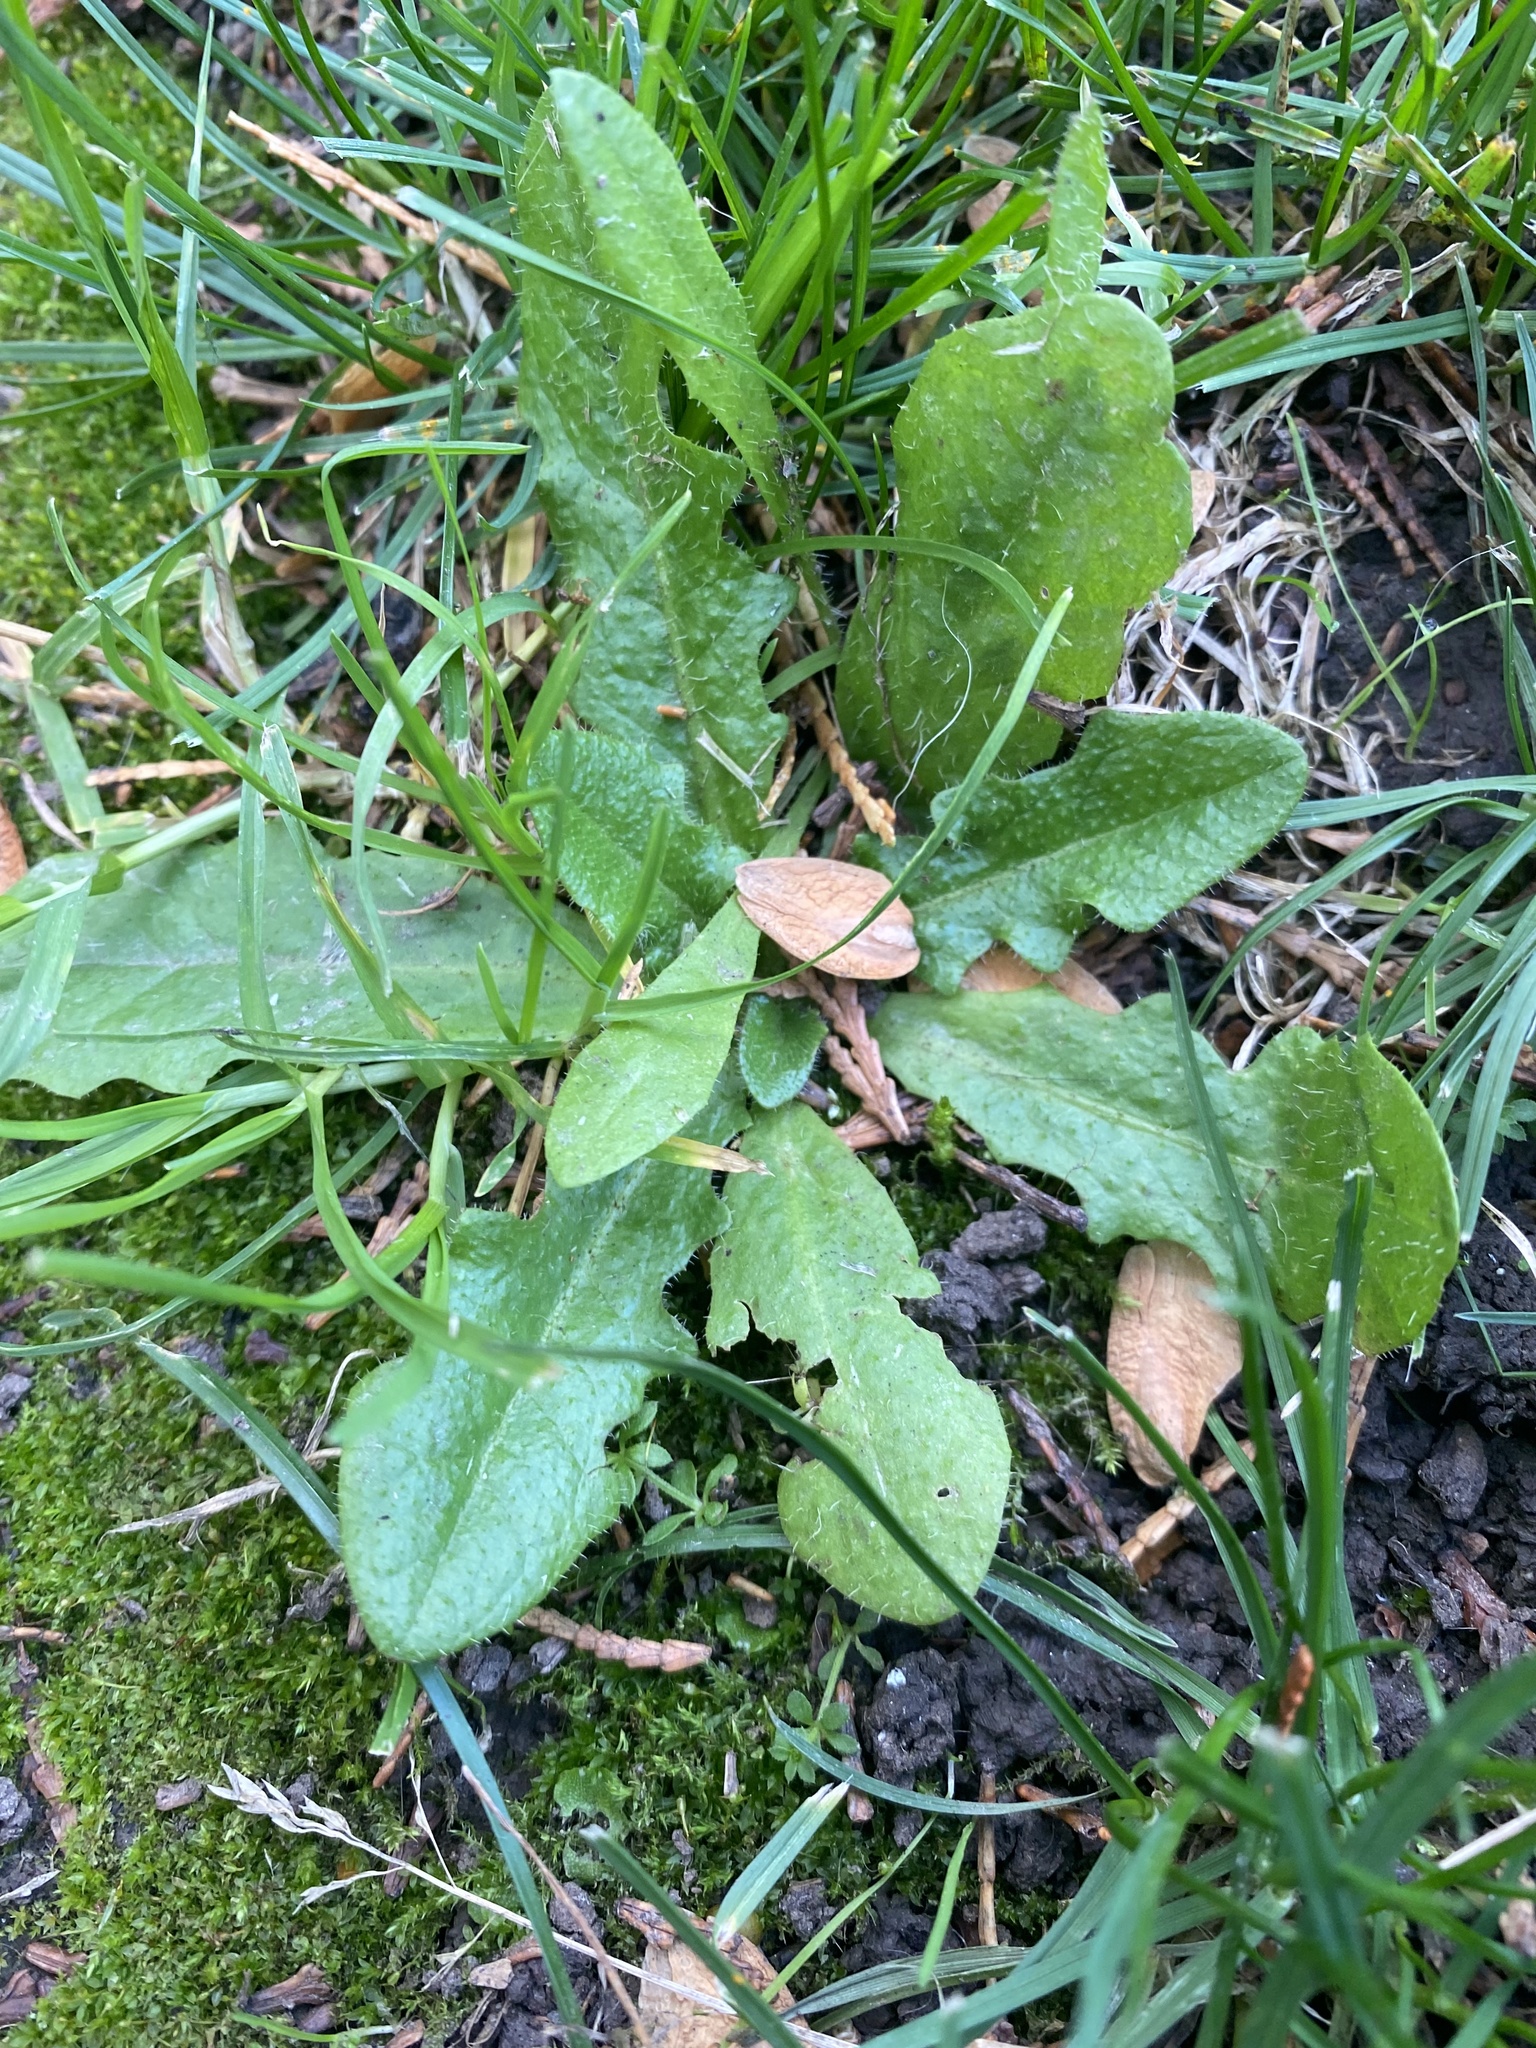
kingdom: Plantae
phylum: Tracheophyta
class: Magnoliopsida
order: Asterales
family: Asteraceae
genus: Hypochaeris
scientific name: Hypochaeris radicata
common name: Flatweed
